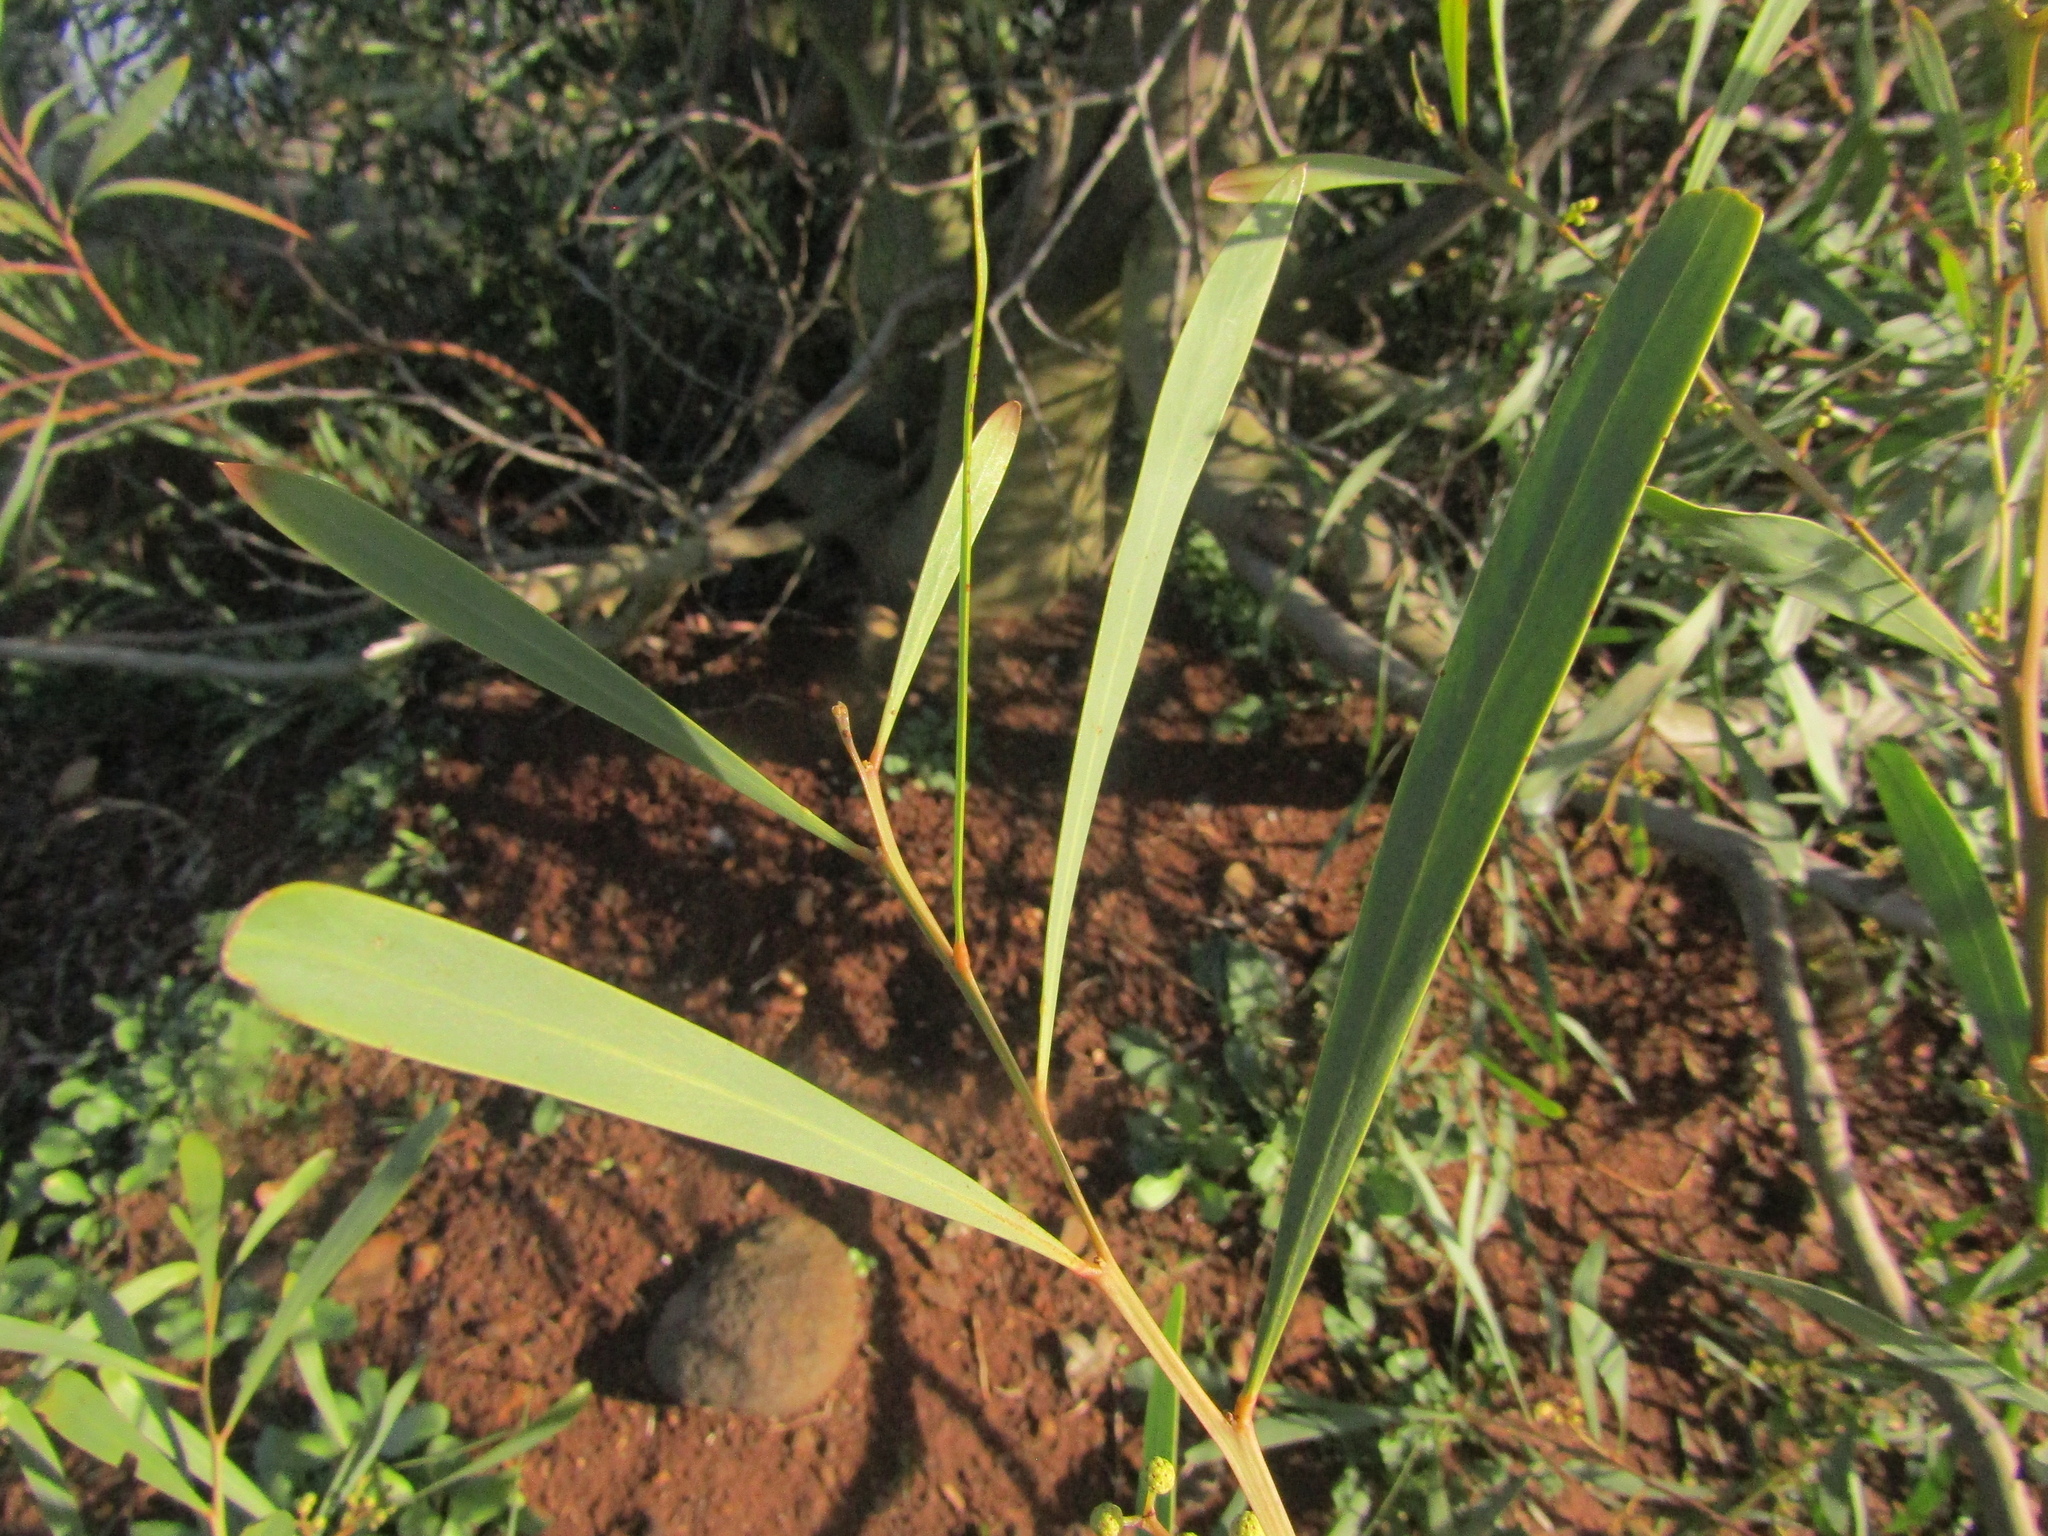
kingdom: Plantae
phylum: Tracheophyta
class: Magnoliopsida
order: Fabales
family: Fabaceae
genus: Acacia
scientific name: Acacia saligna
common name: Orange wattle
